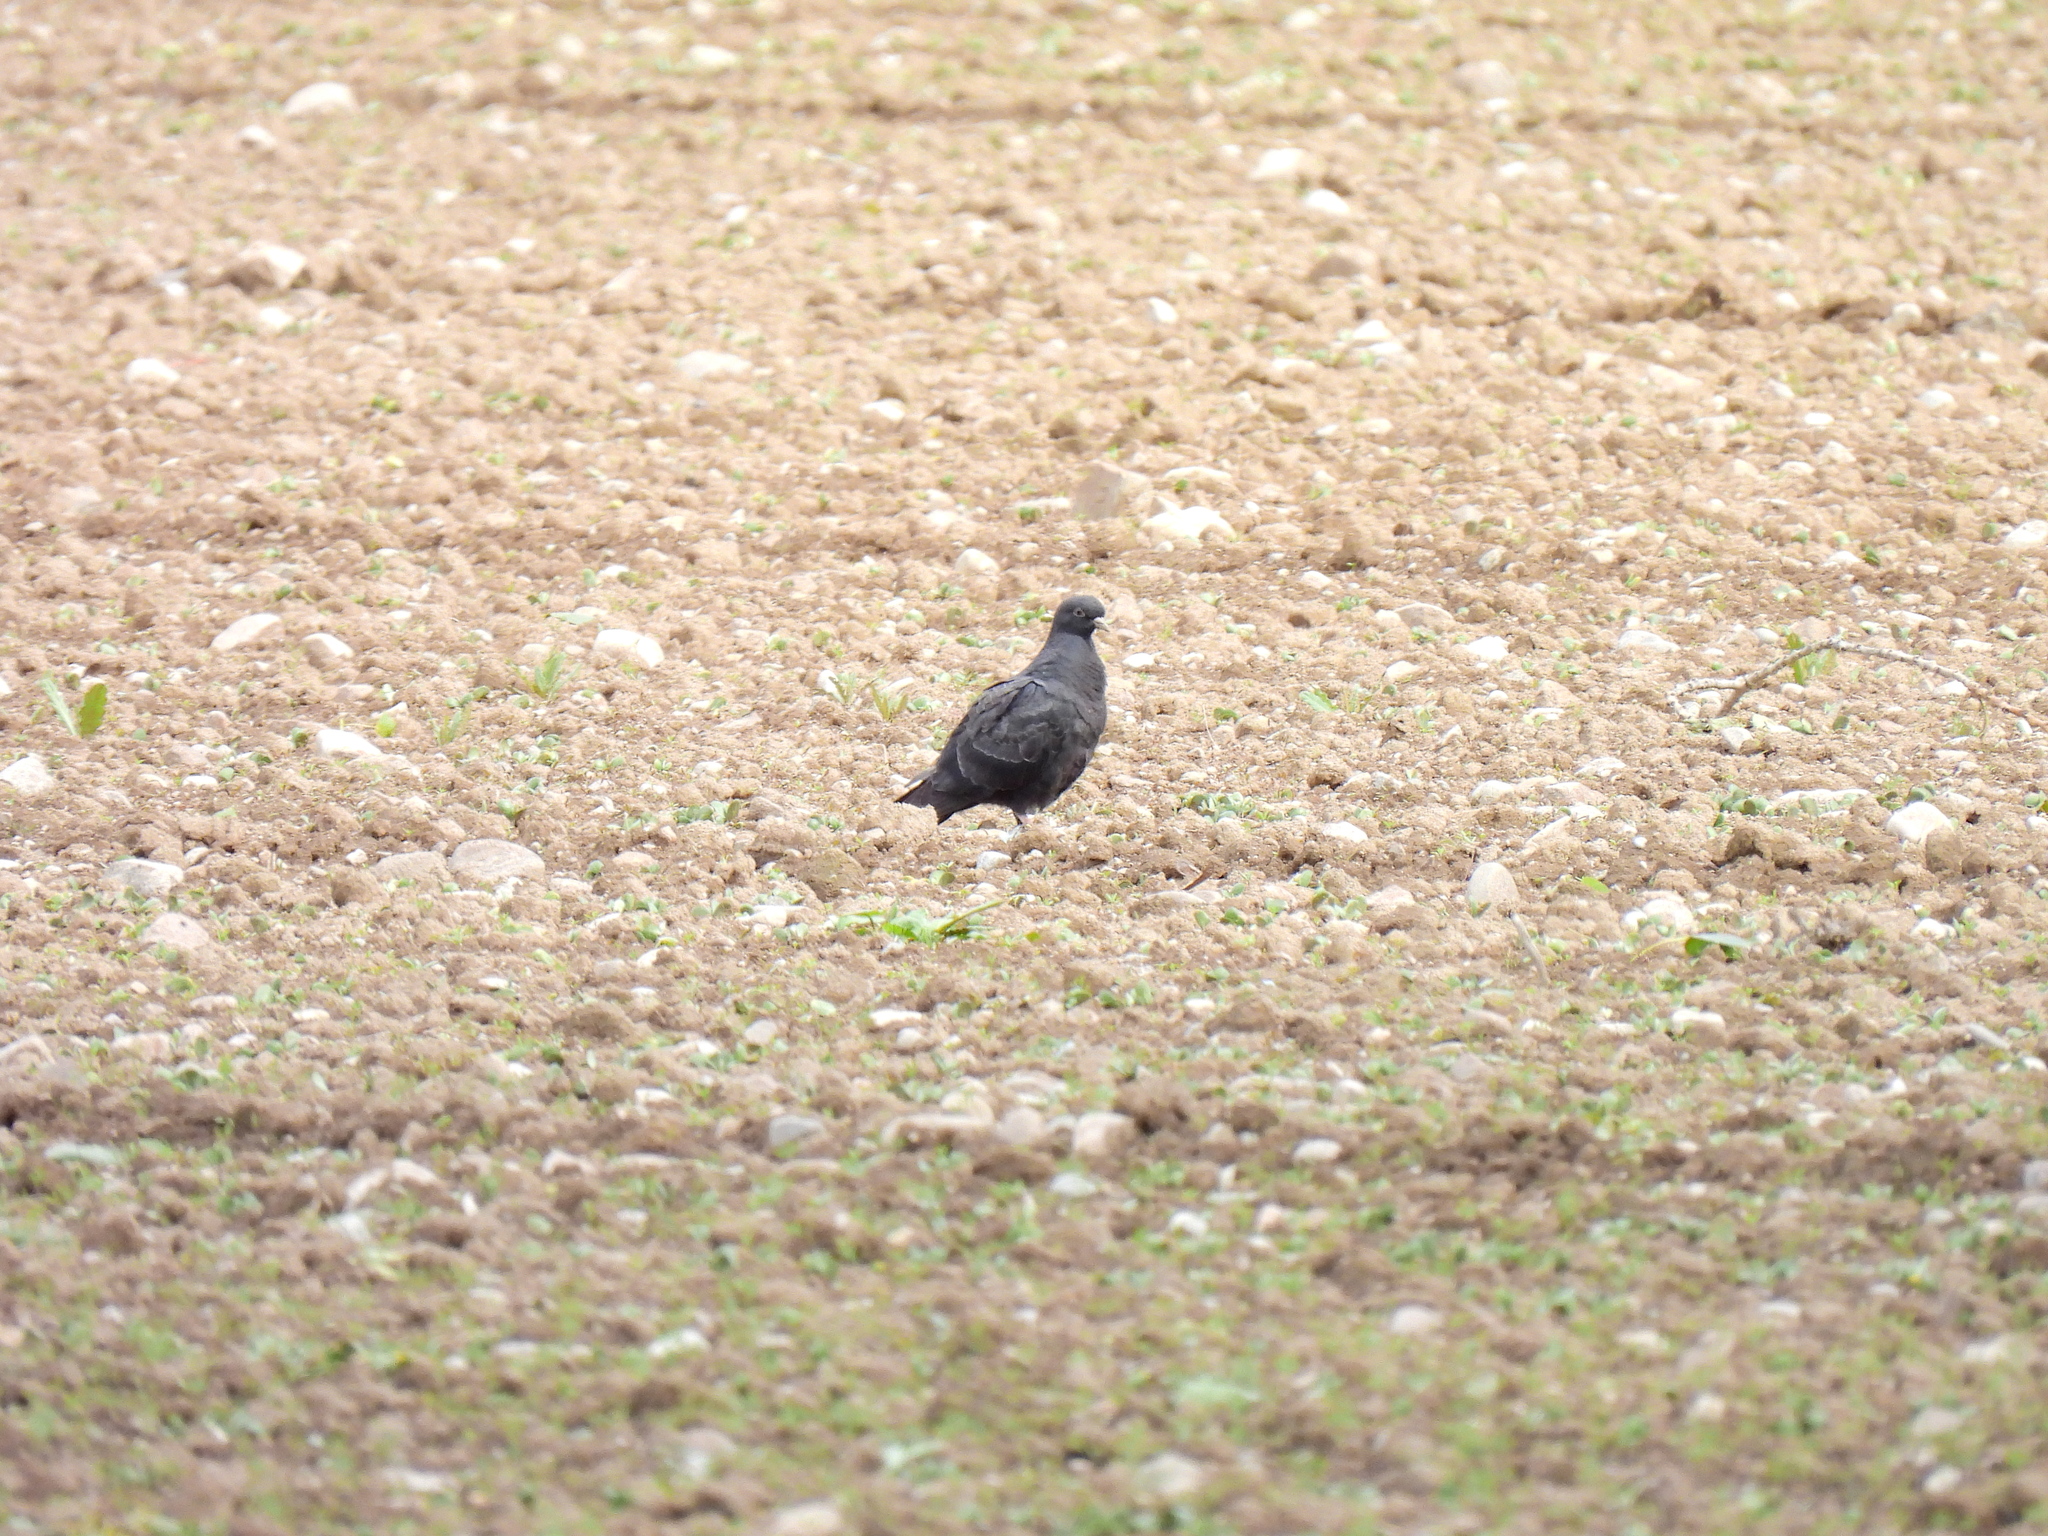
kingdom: Animalia
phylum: Chordata
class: Aves
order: Columbiformes
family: Columbidae
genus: Columba
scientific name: Columba livia
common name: Rock pigeon
